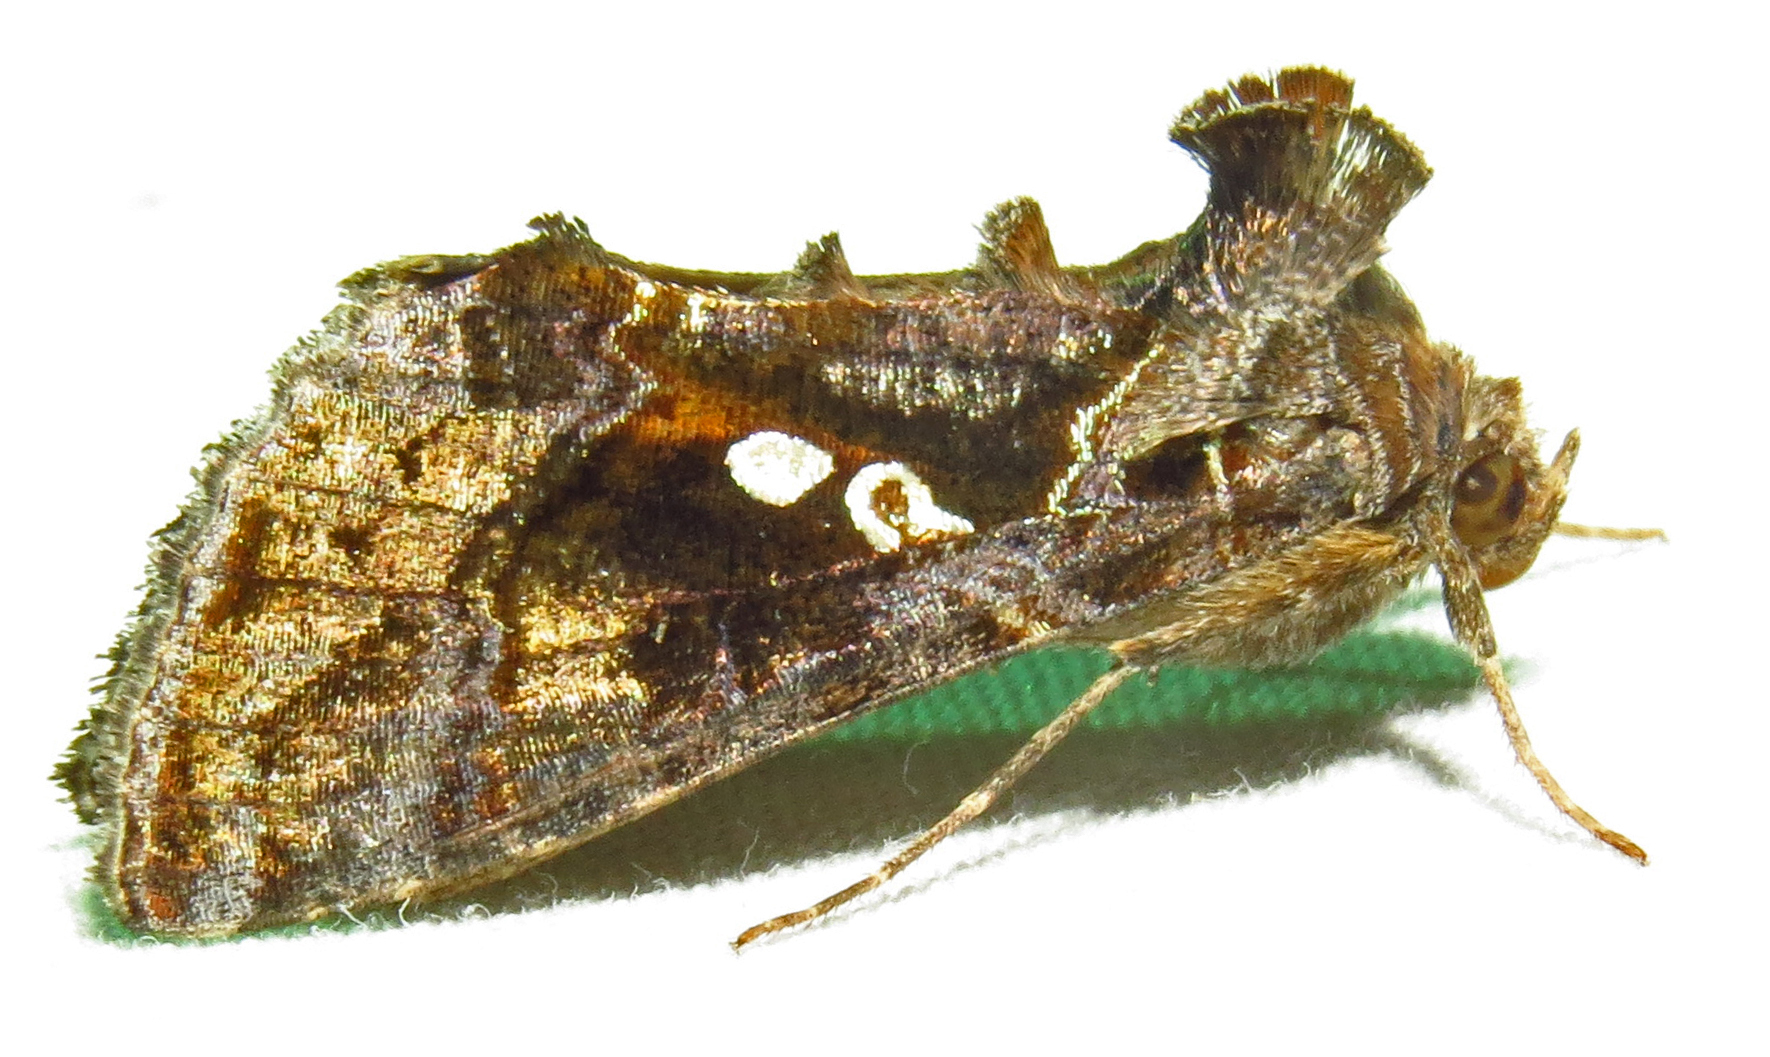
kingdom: Animalia
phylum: Arthropoda
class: Insecta
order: Lepidoptera
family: Noctuidae
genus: Chrysodeixis
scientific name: Chrysodeixis includens
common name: Cutworm moth
